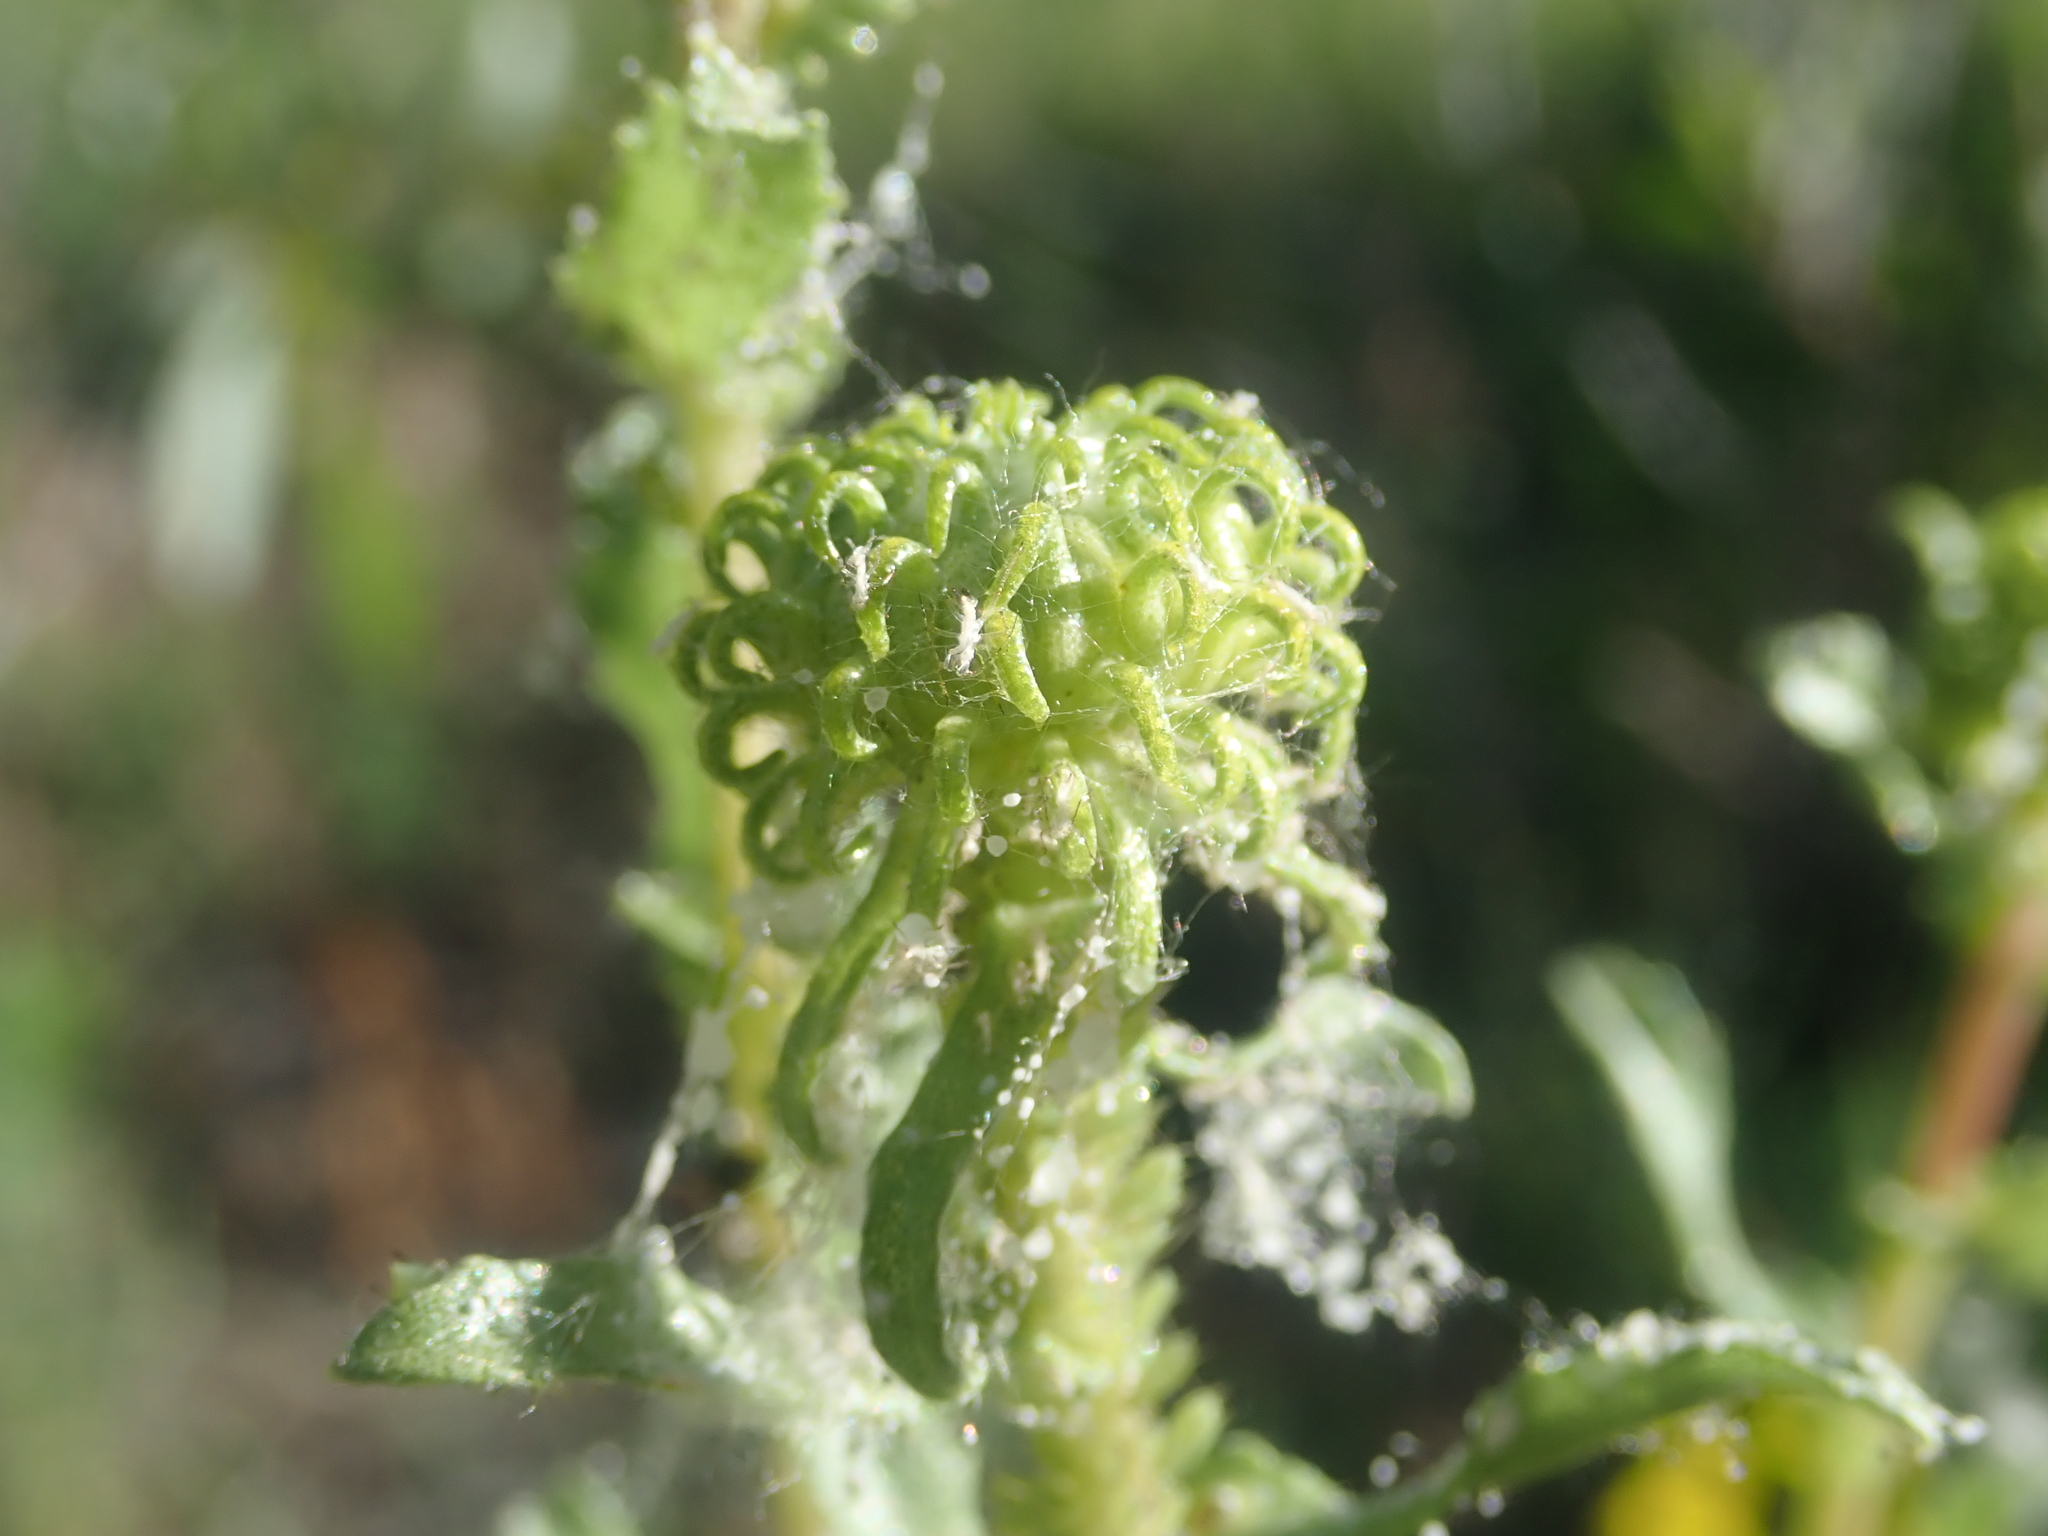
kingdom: Plantae
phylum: Tracheophyta
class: Magnoliopsida
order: Asterales
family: Asteraceae
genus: Grindelia
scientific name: Grindelia squarrosa
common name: Curly-cup gumweed
